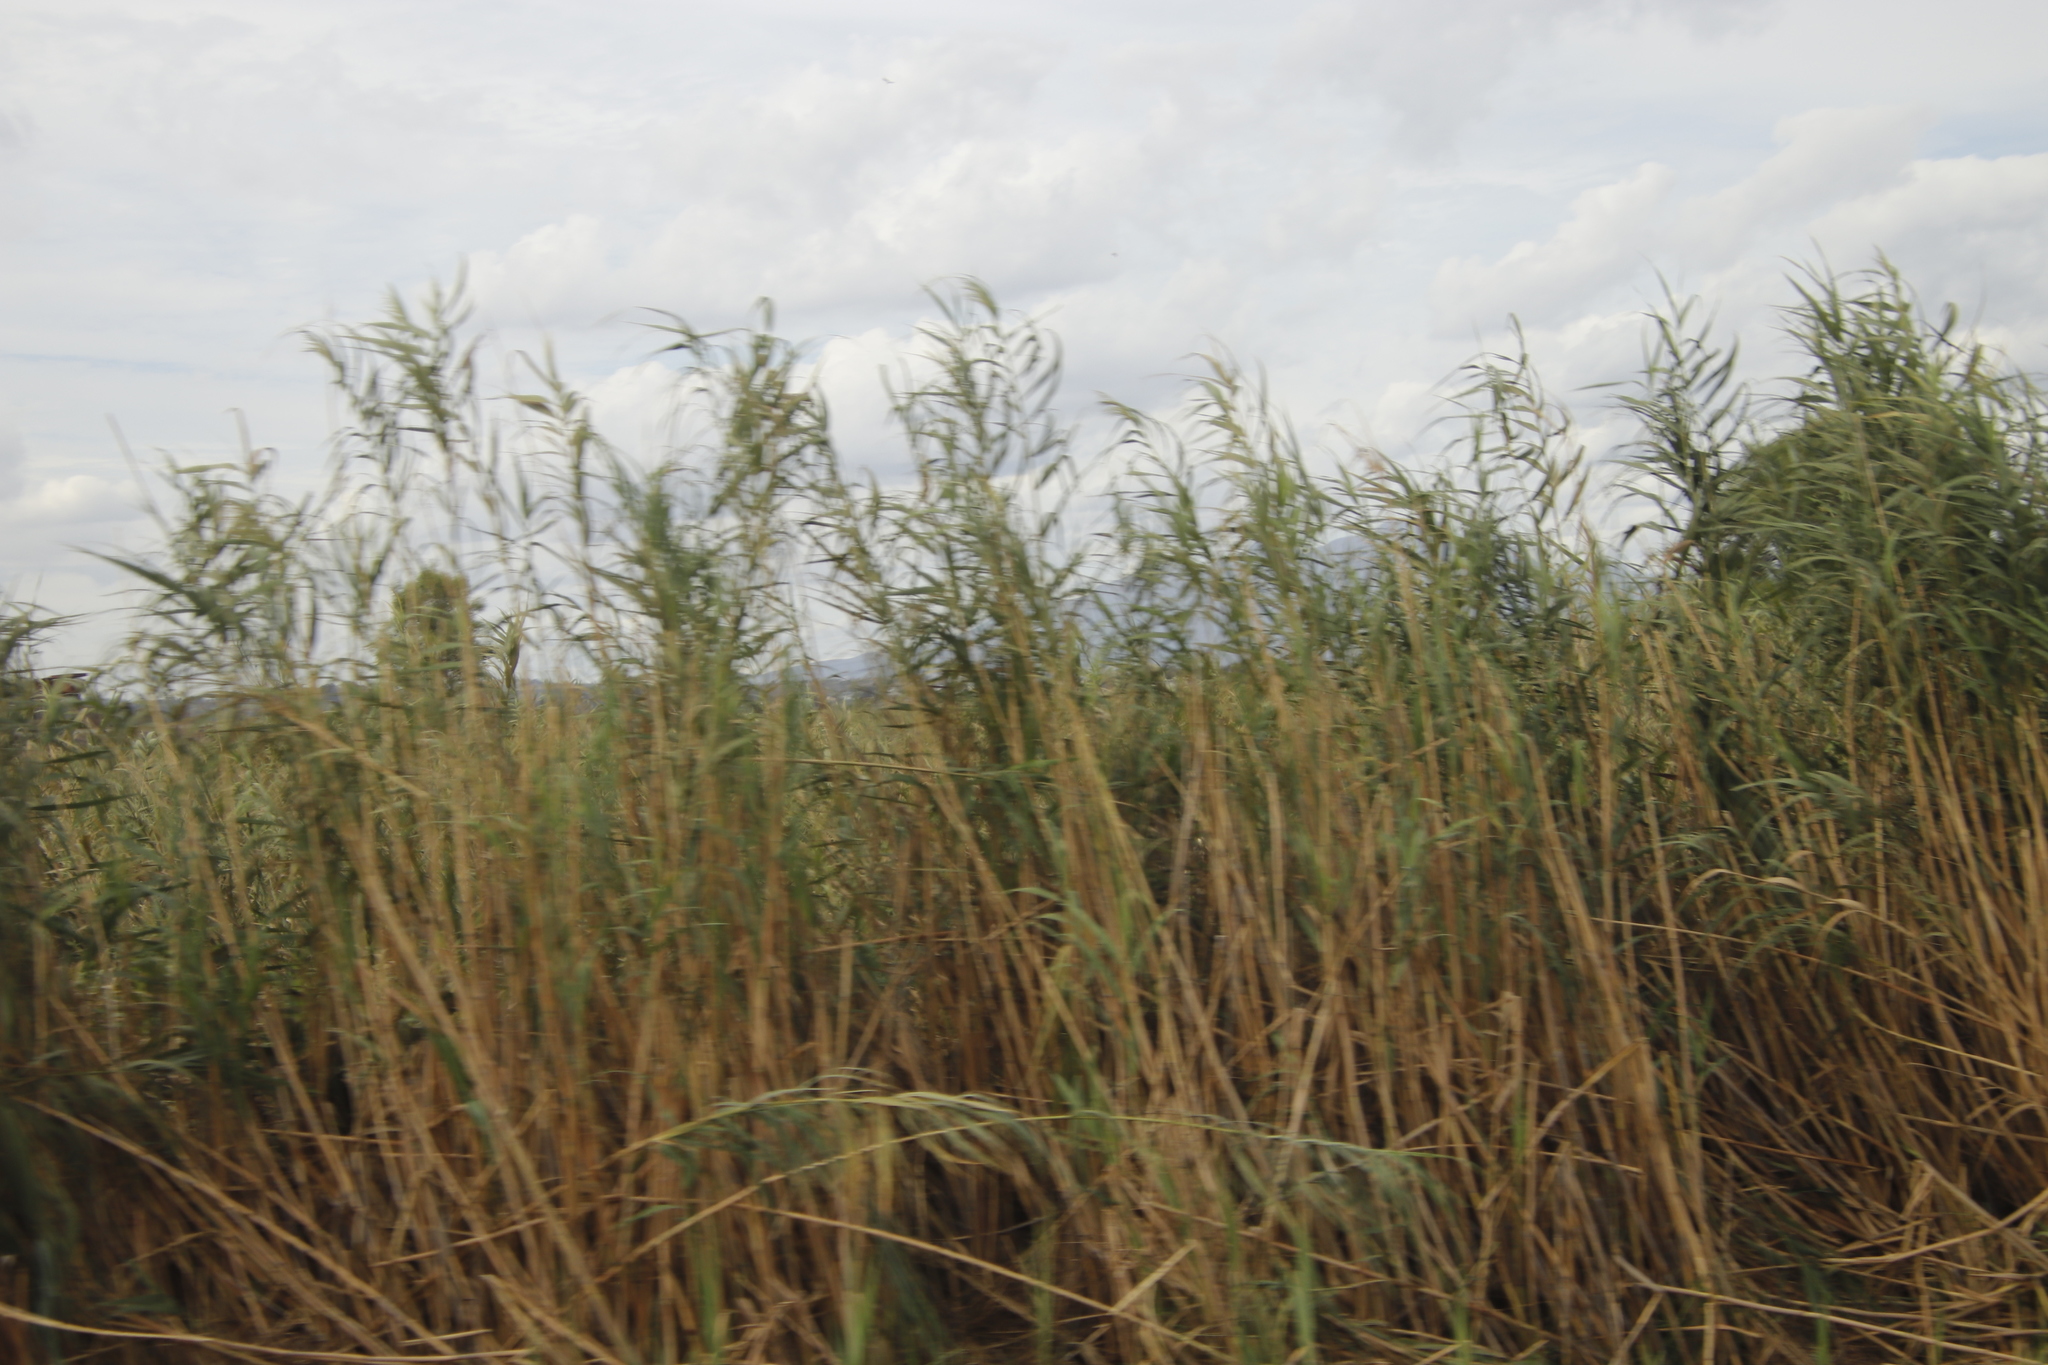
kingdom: Plantae
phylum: Tracheophyta
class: Liliopsida
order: Poales
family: Poaceae
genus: Phragmites
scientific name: Phragmites australis
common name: Common reed
